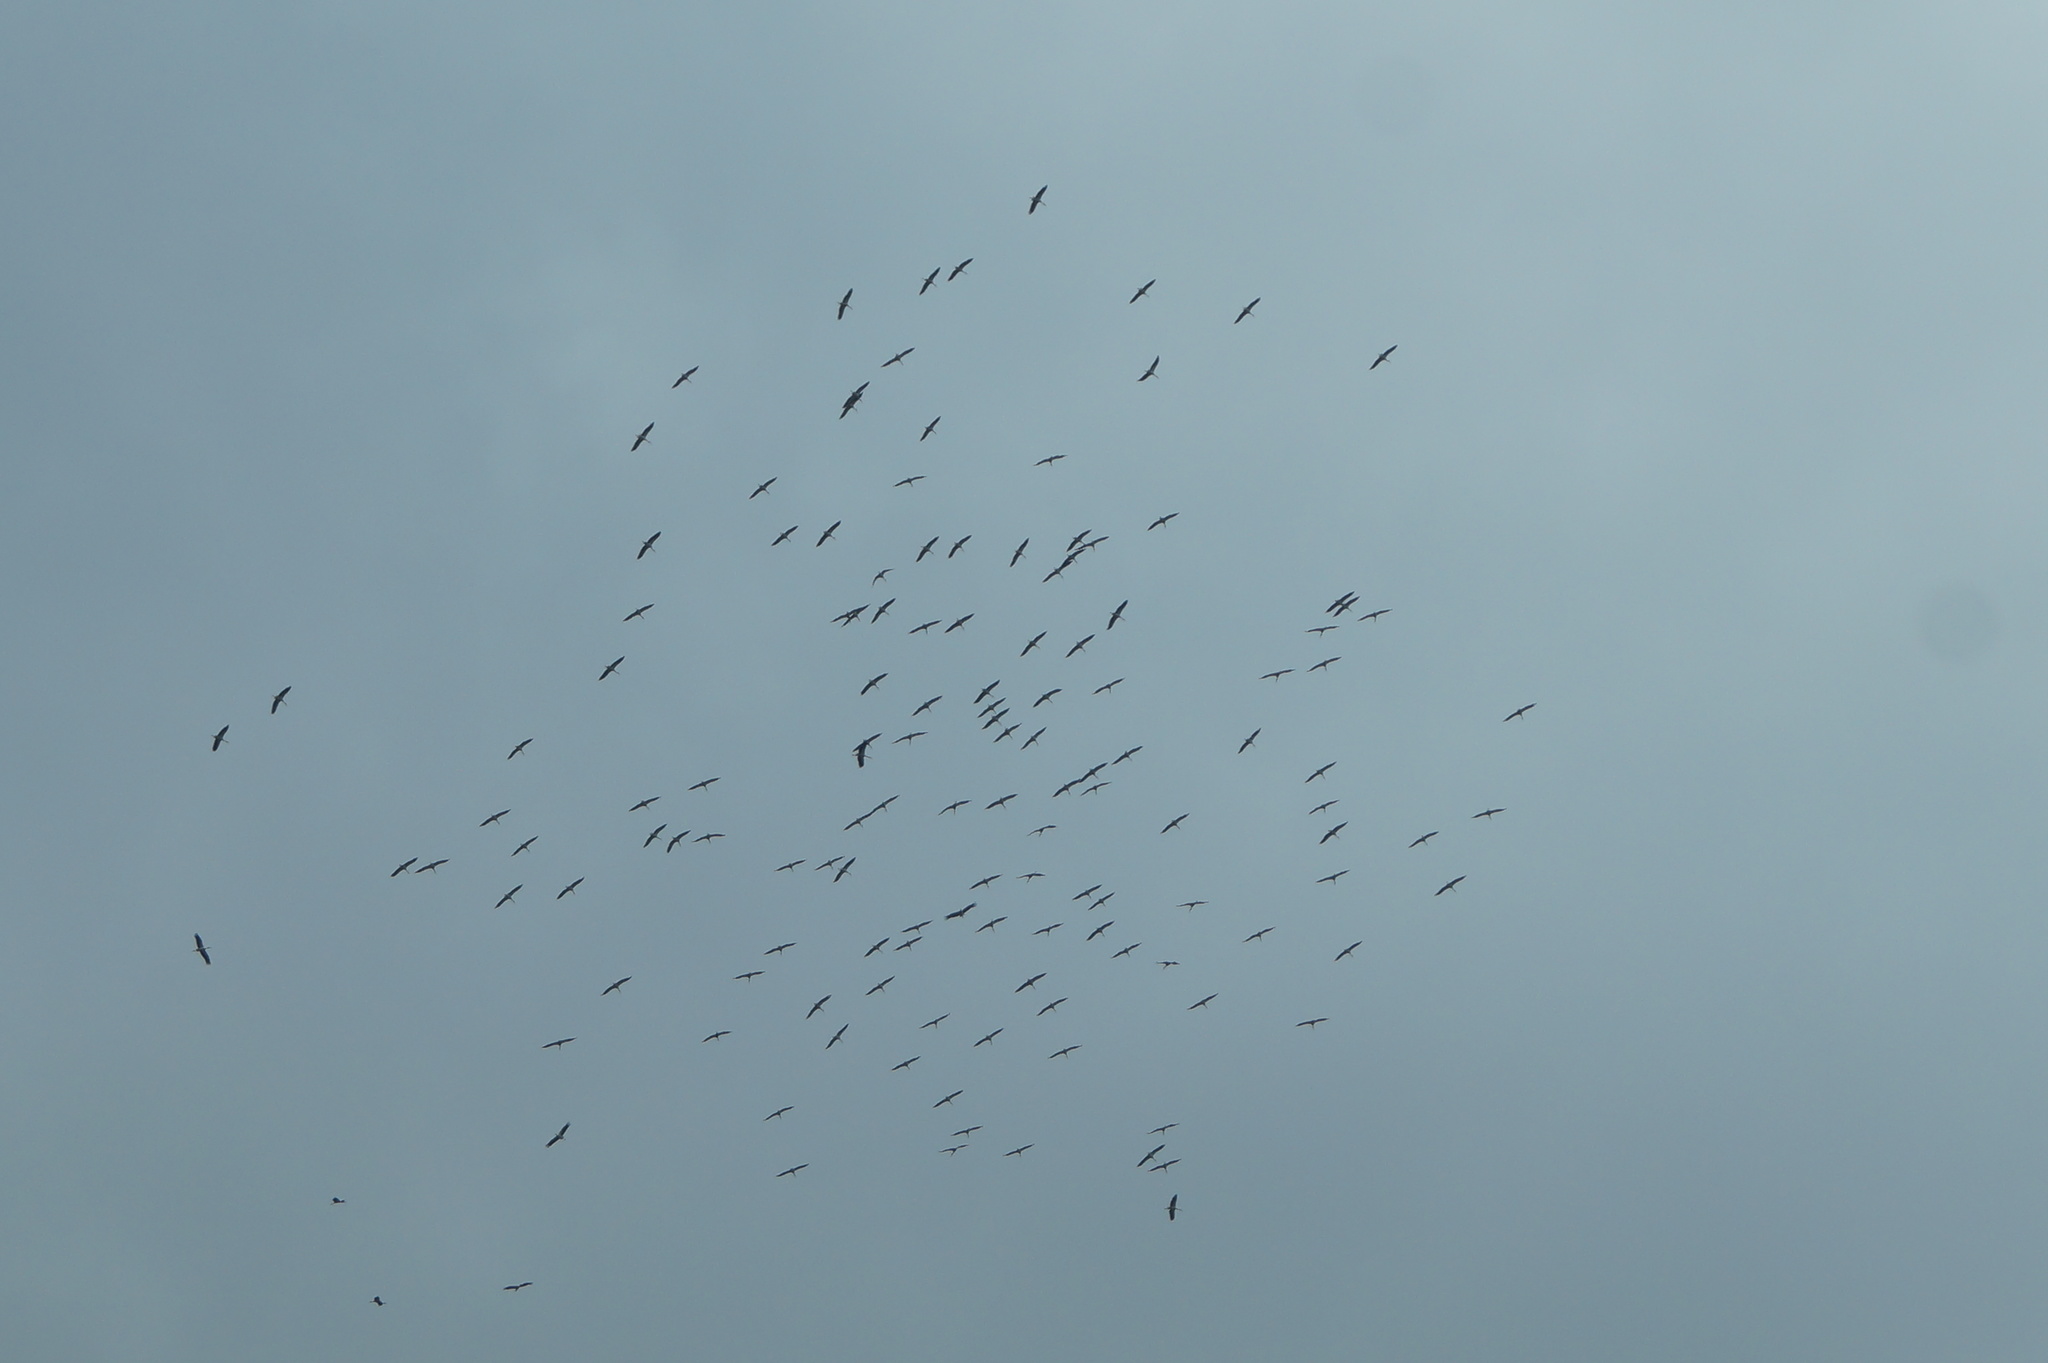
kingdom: Animalia
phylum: Chordata
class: Aves
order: Ciconiiformes
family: Ciconiidae
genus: Ciconia
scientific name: Ciconia ciconia
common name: White stork
